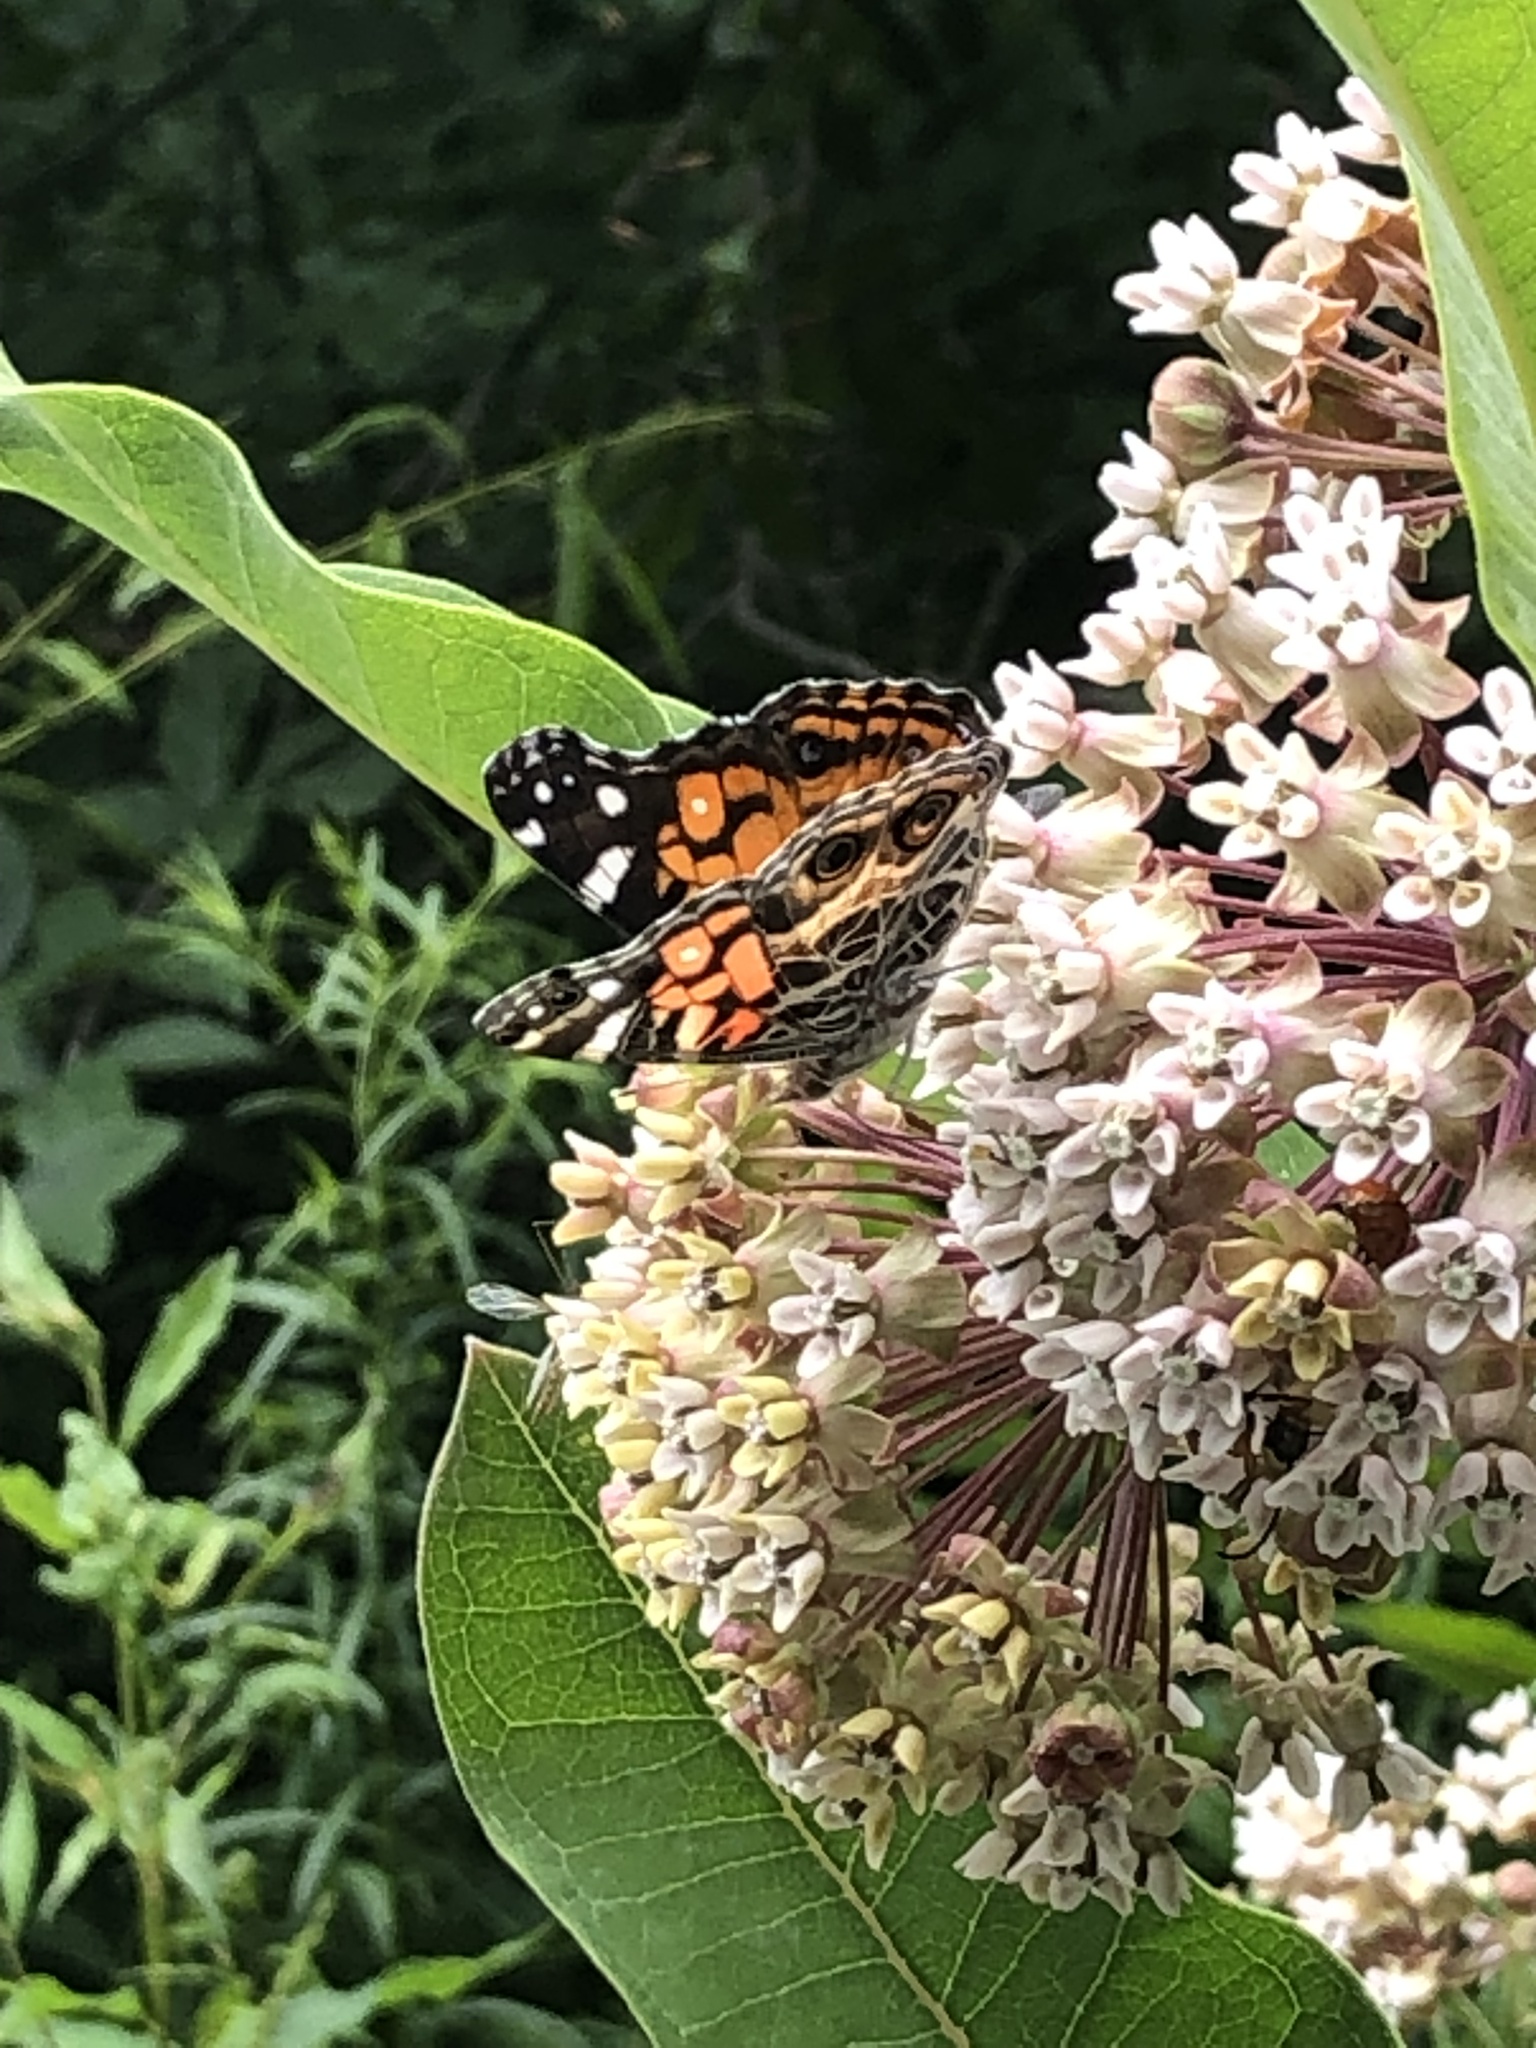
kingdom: Animalia
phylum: Arthropoda
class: Insecta
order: Lepidoptera
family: Nymphalidae
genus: Vanessa
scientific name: Vanessa virginiensis
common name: American lady
